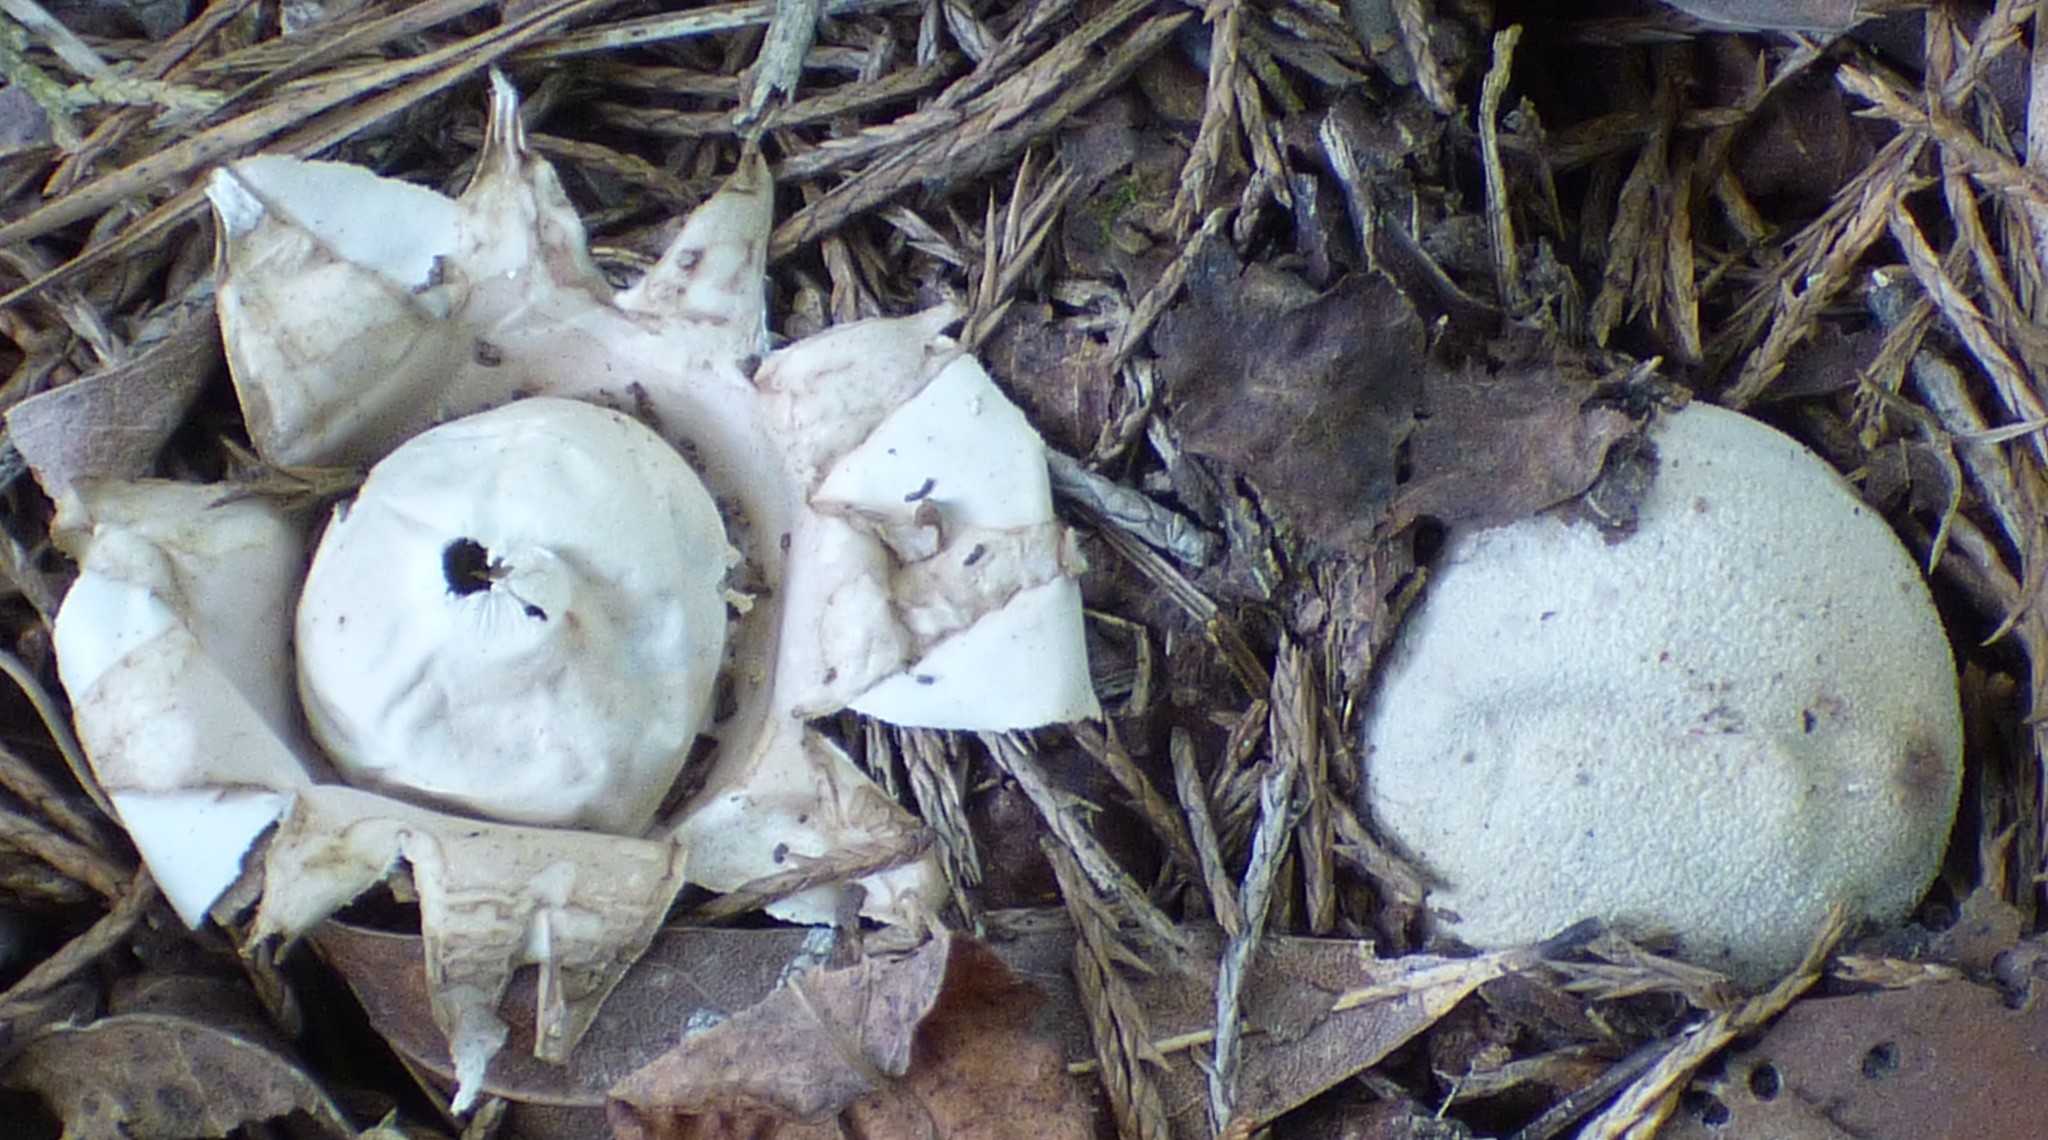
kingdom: Fungi
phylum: Basidiomycota
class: Agaricomycetes
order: Geastrales
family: Geastraceae
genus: Geastrum
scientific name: Geastrum fimbriatum
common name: Sessile earthstar
